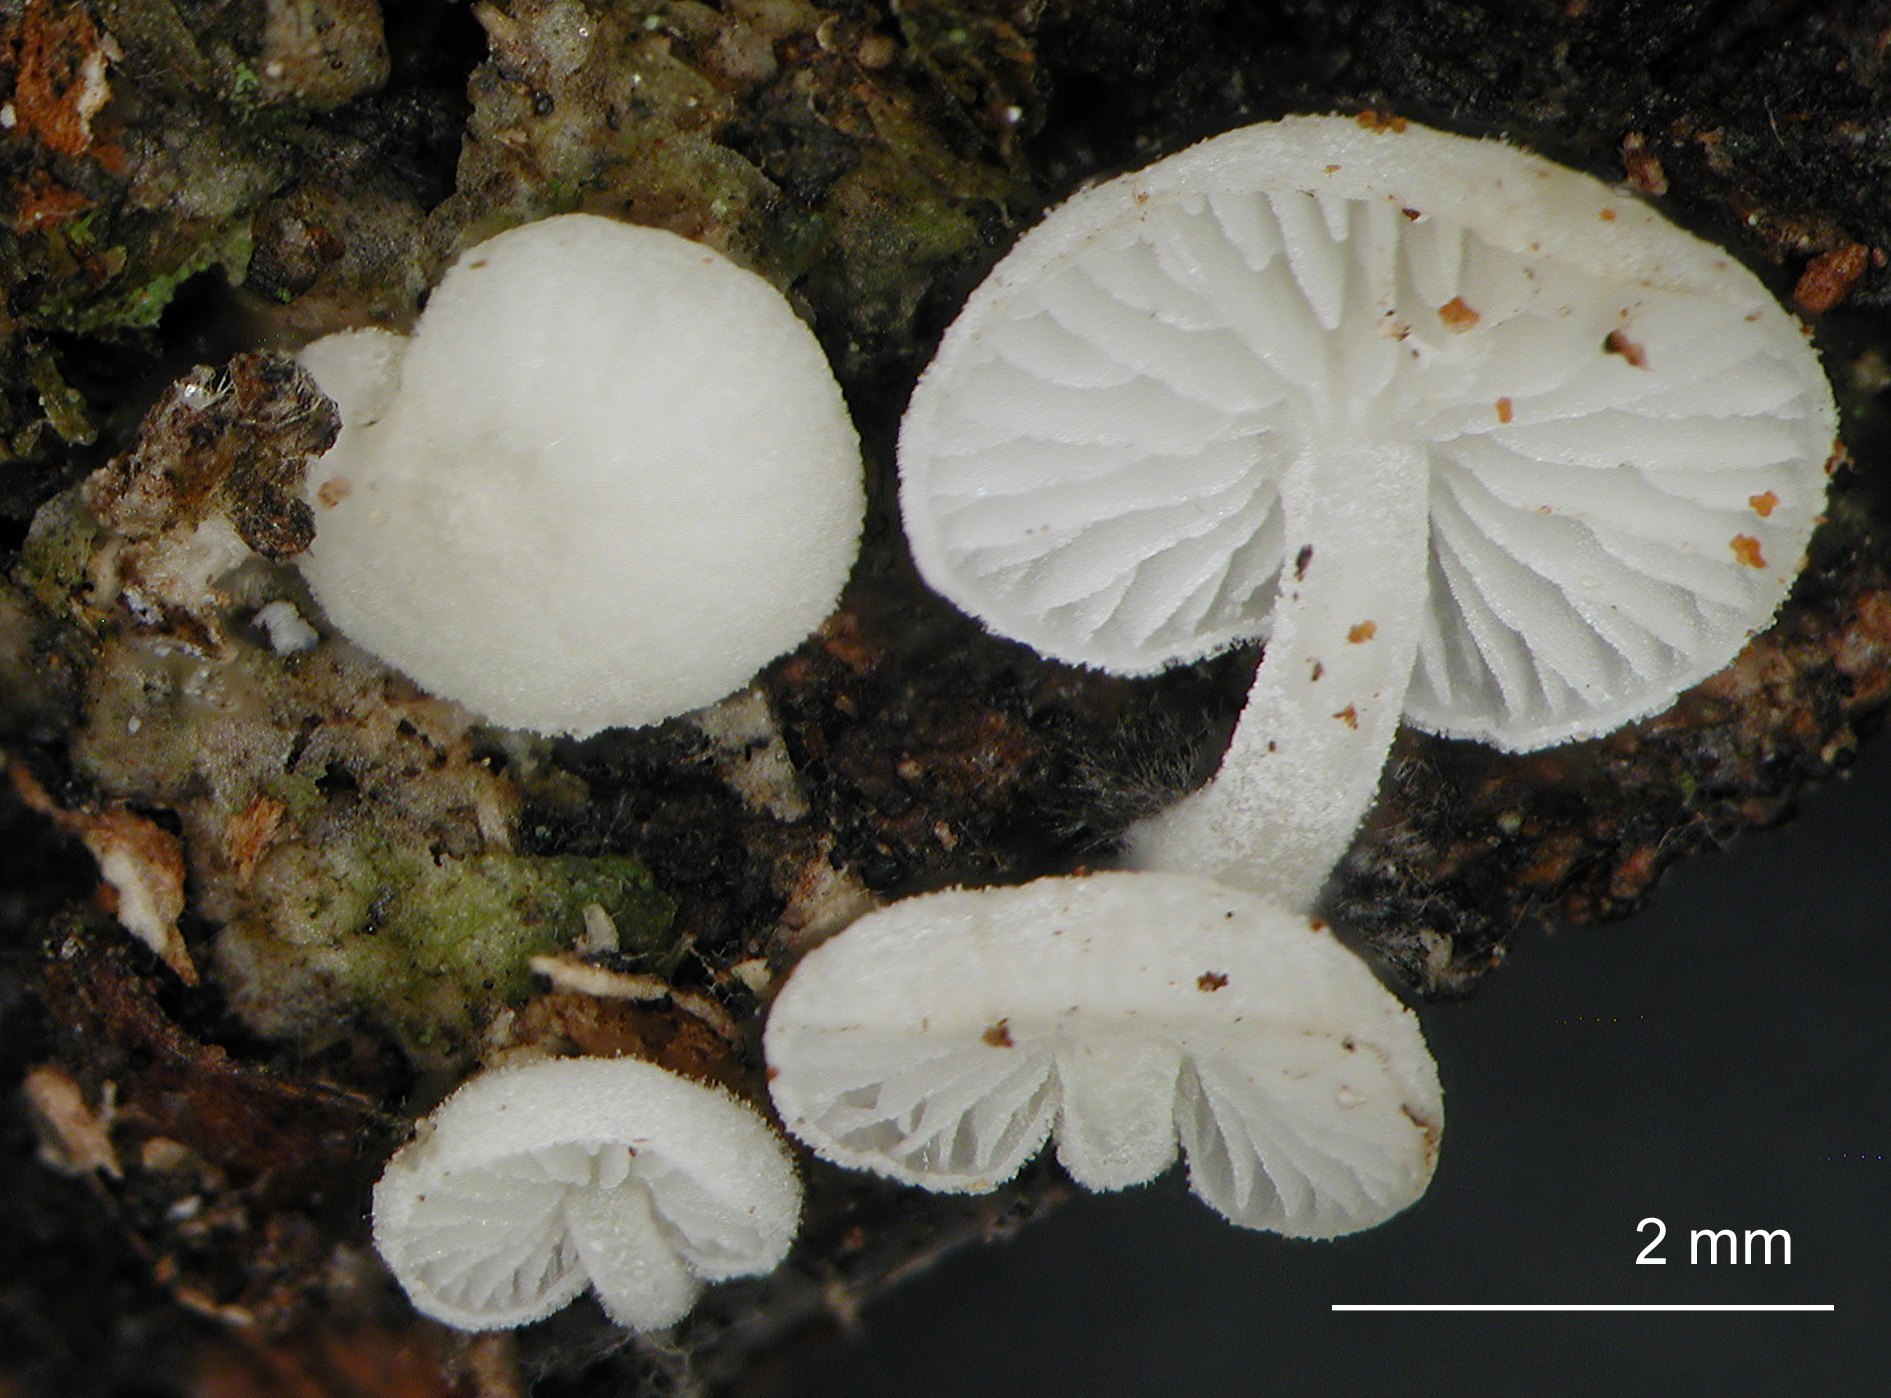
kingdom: Fungi
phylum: Basidiomycota
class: Agaricomycetes
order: Agaricales
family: Mycenaceae
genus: Hemimycena
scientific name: Hemimycena tortuosa
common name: Dewdrop bonnet
